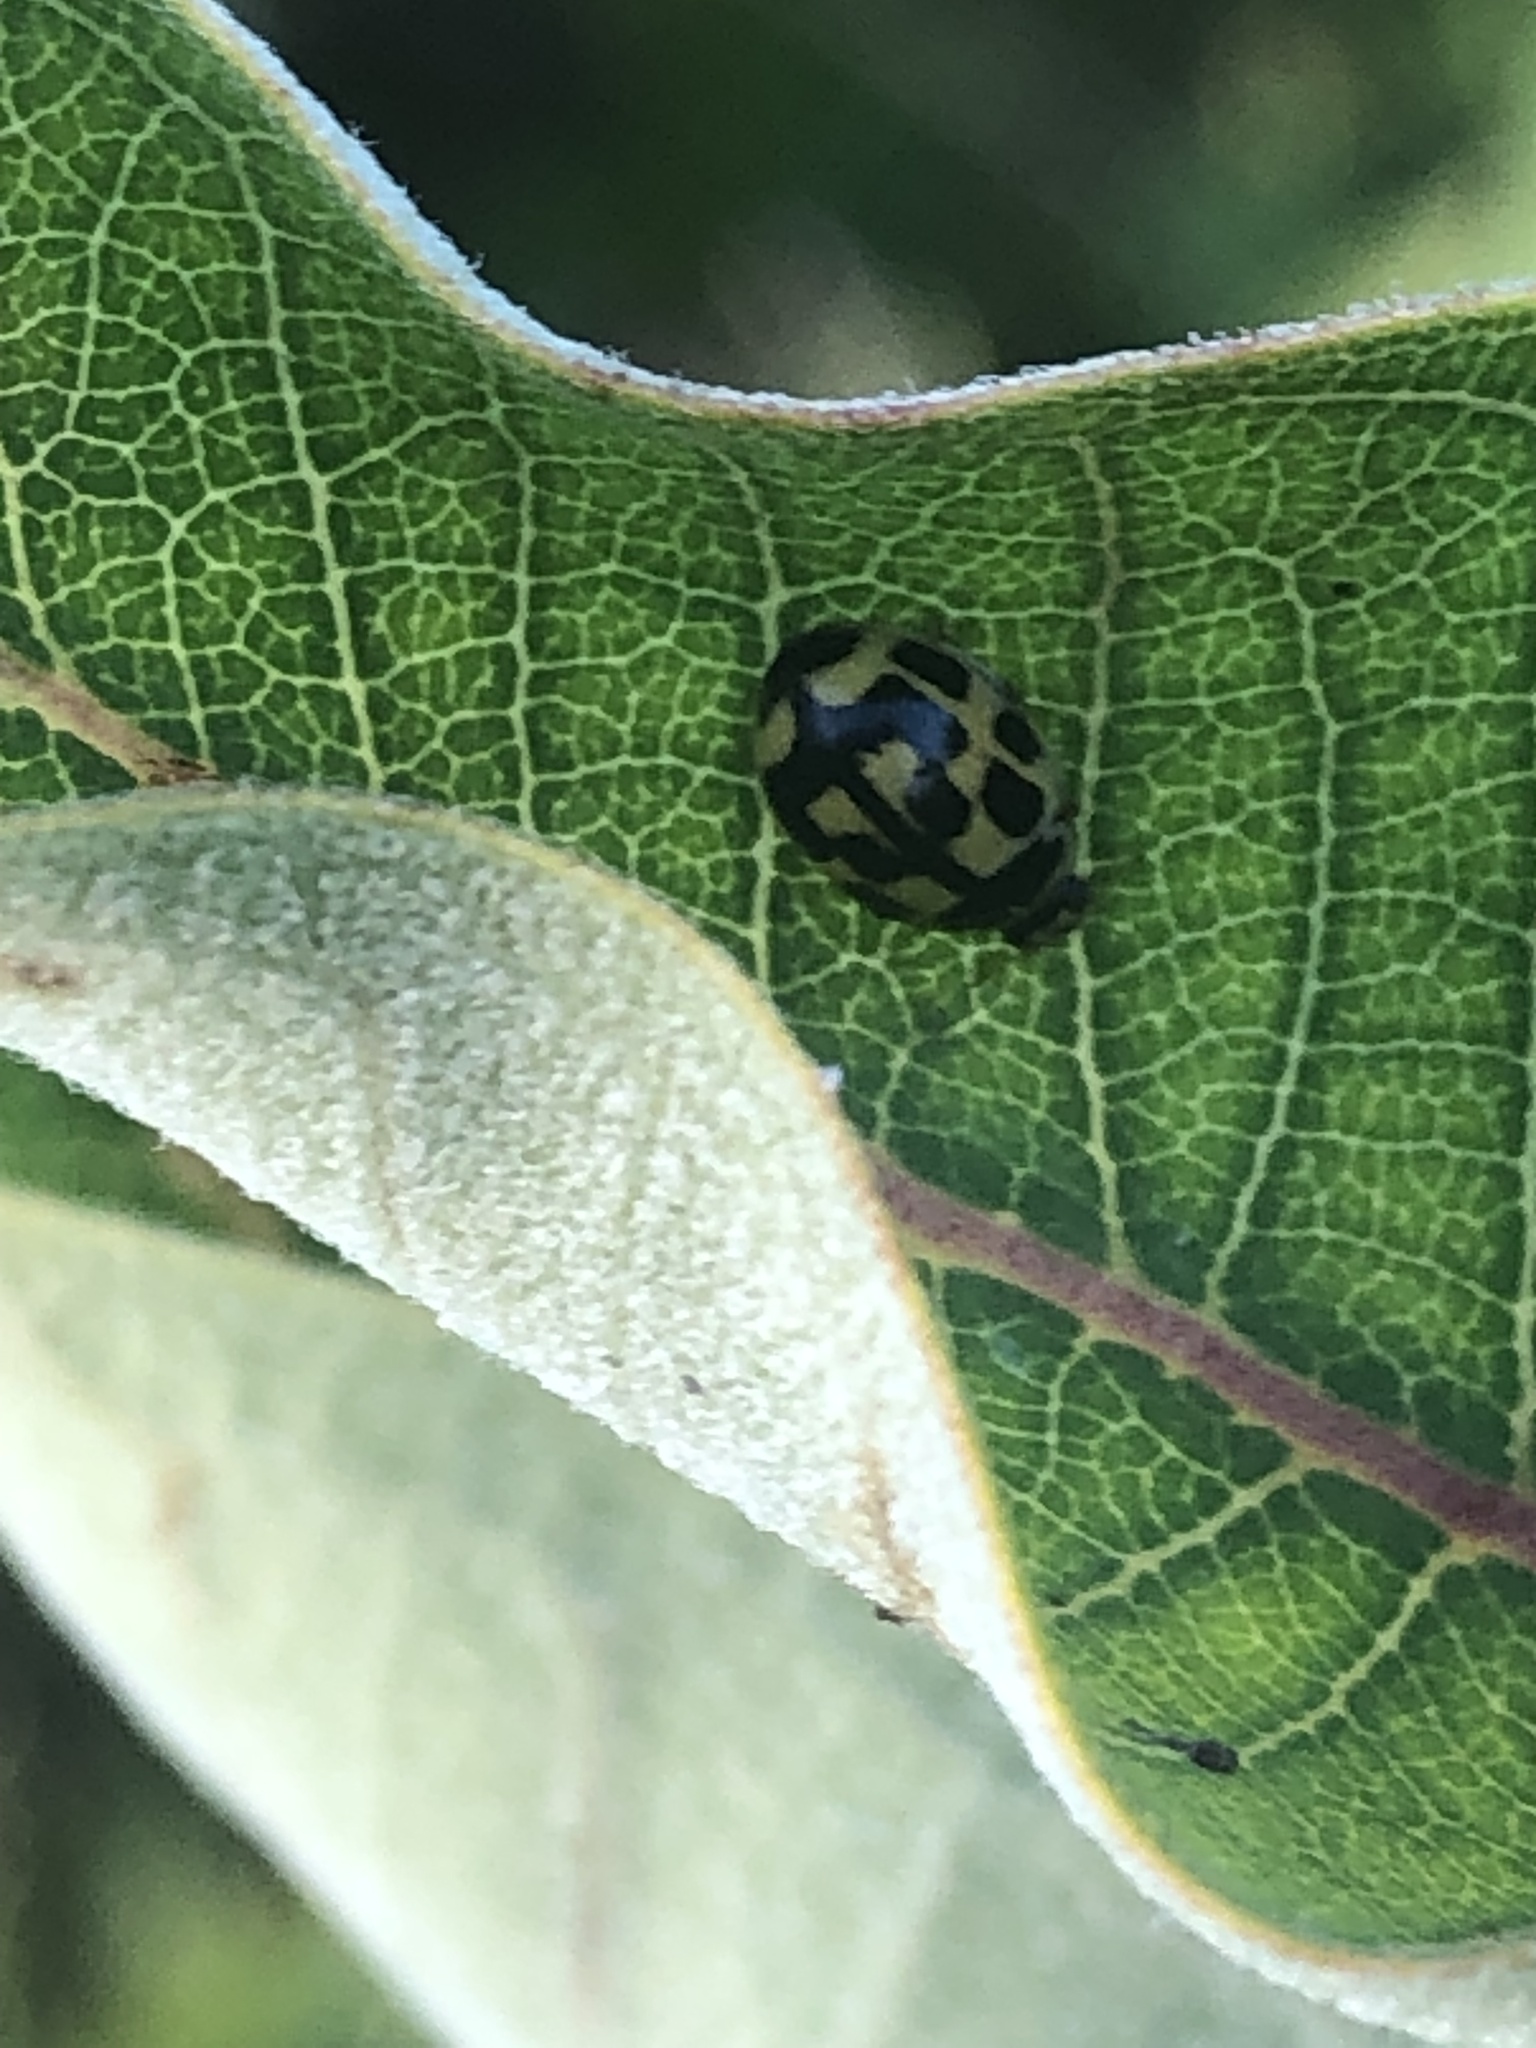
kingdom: Animalia
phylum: Arthropoda
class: Insecta
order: Coleoptera
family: Coccinellidae
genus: Propylaea
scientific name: Propylaea quatuordecimpunctata
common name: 14-spotted ladybird beetle
